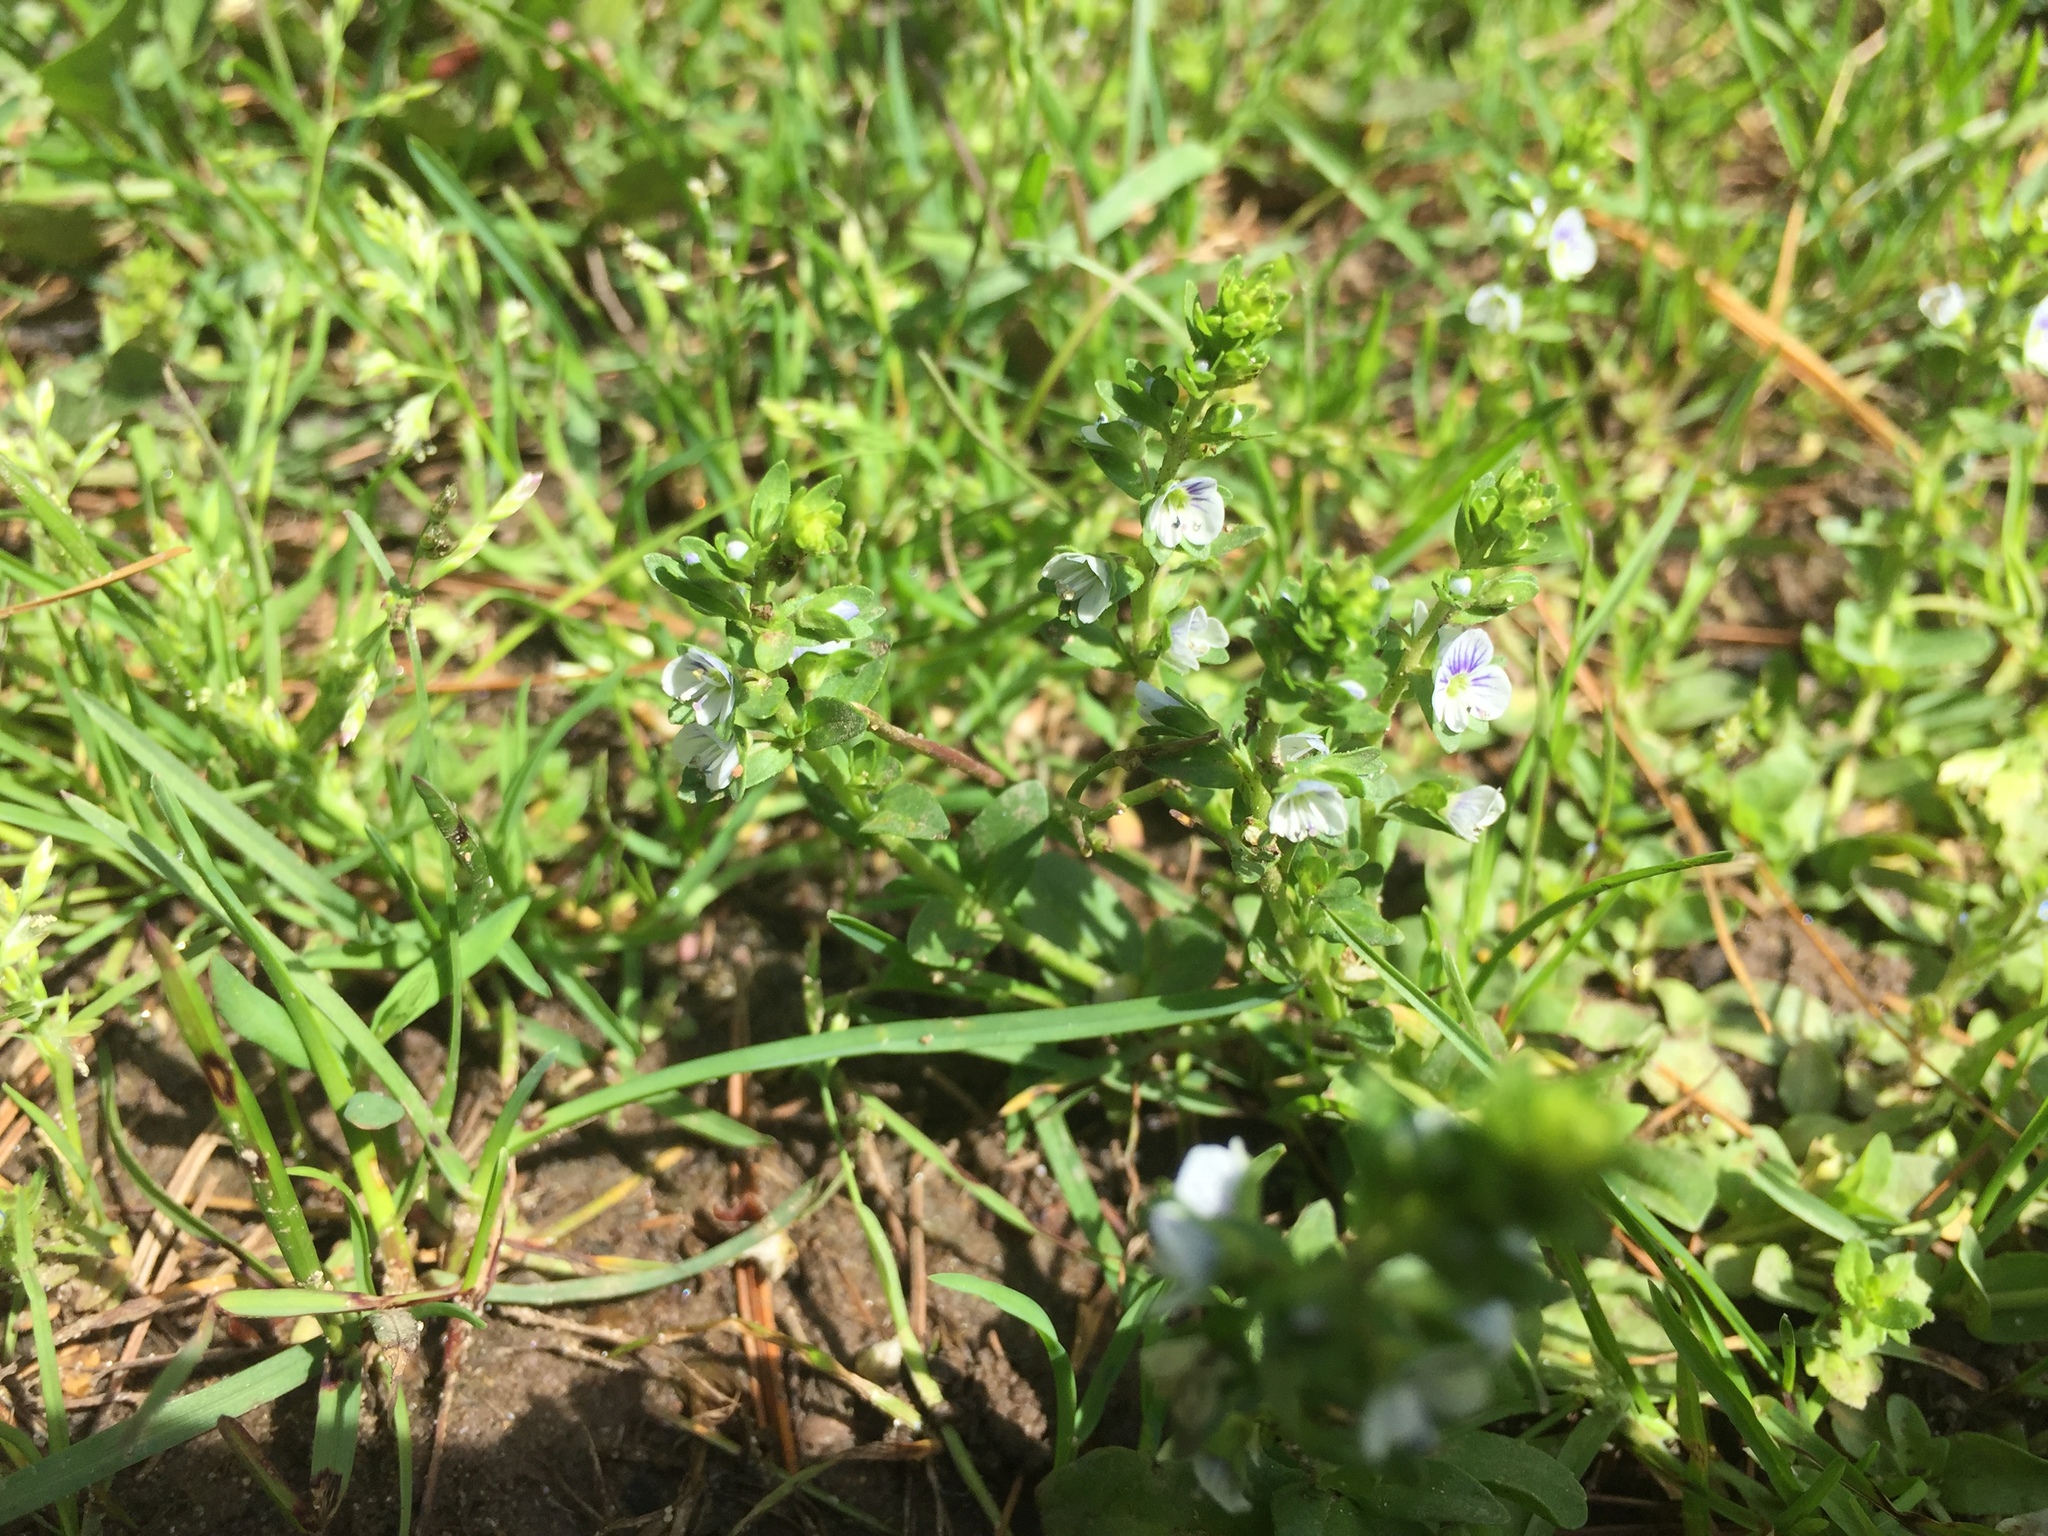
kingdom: Plantae
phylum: Tracheophyta
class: Magnoliopsida
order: Lamiales
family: Plantaginaceae
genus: Veronica
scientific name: Veronica serpyllifolia
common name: Thyme-leaved speedwell
